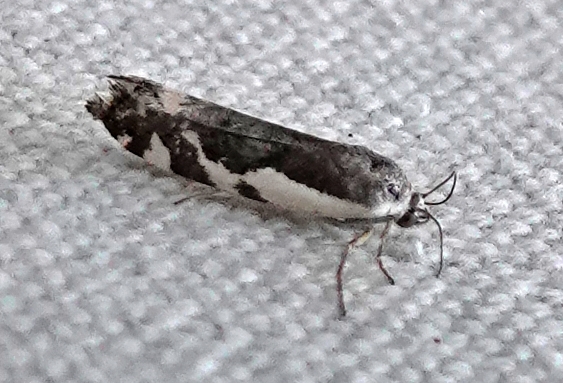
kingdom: Animalia
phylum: Arthropoda
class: Insecta
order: Lepidoptera
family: Noctuidae
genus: Acontia
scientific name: Acontia Tarache augustipennis
